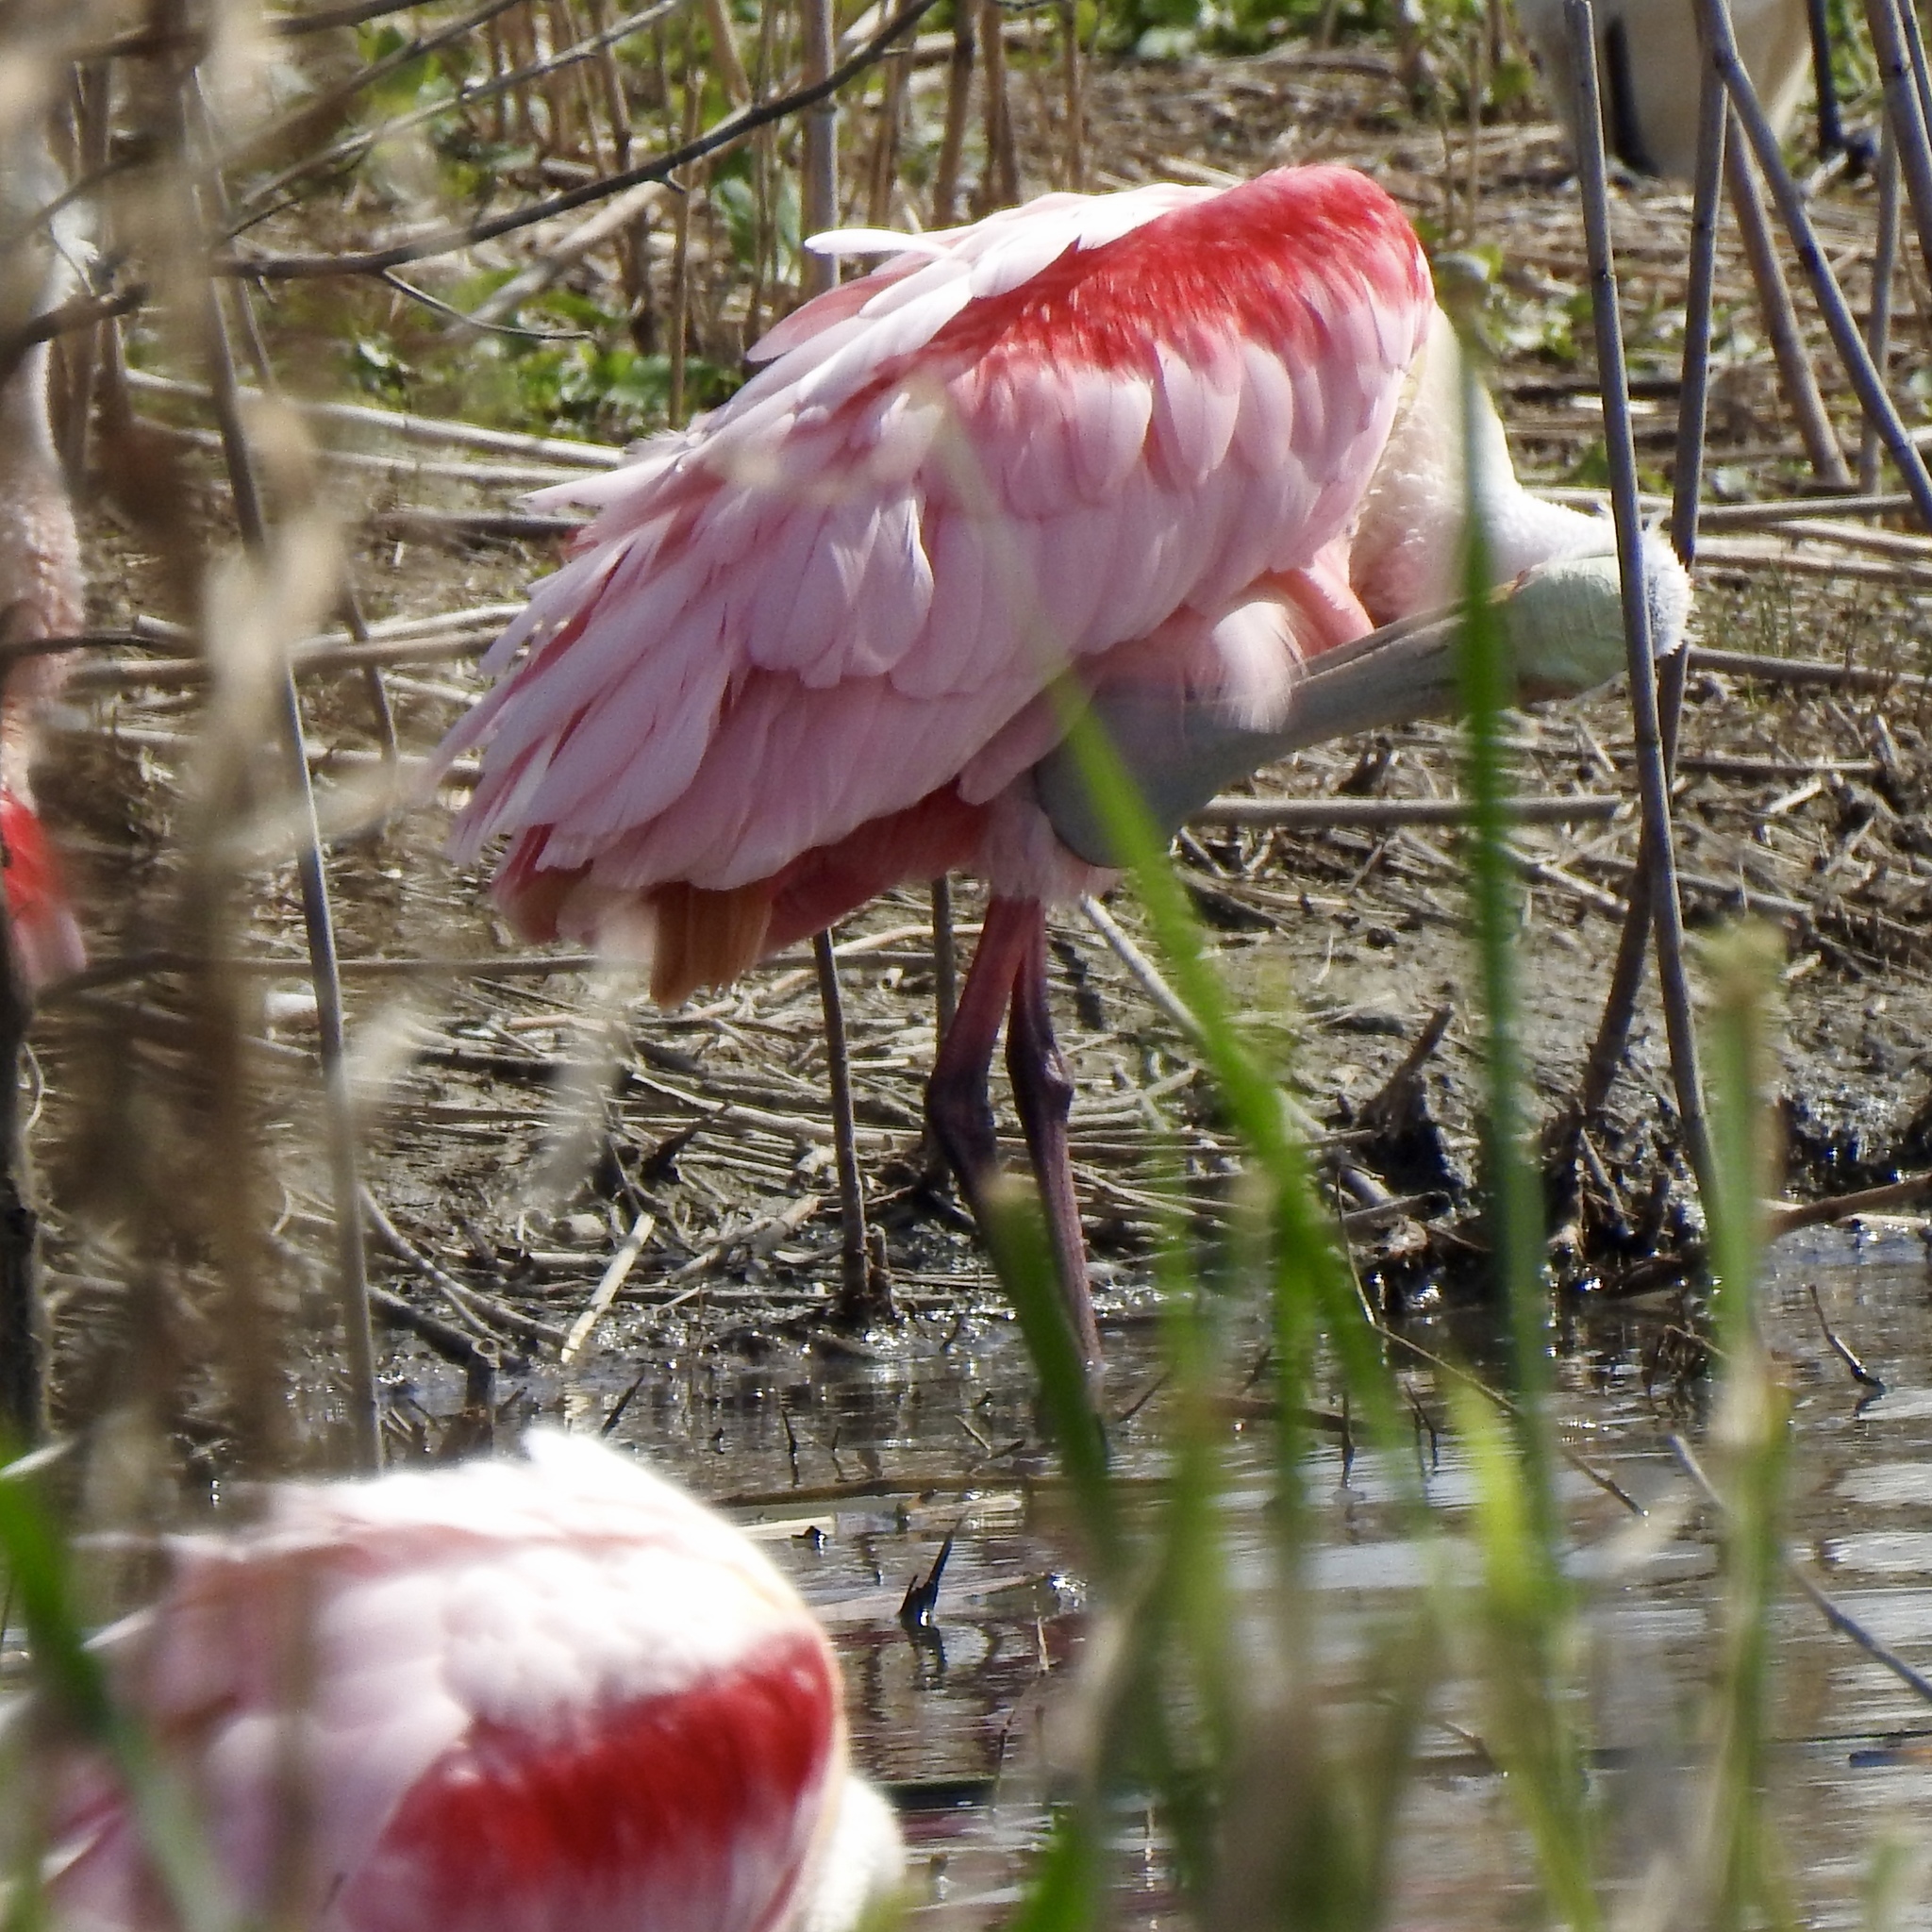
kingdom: Animalia
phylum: Chordata
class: Aves
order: Pelecaniformes
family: Threskiornithidae
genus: Platalea
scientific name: Platalea ajaja
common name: Roseate spoonbill
